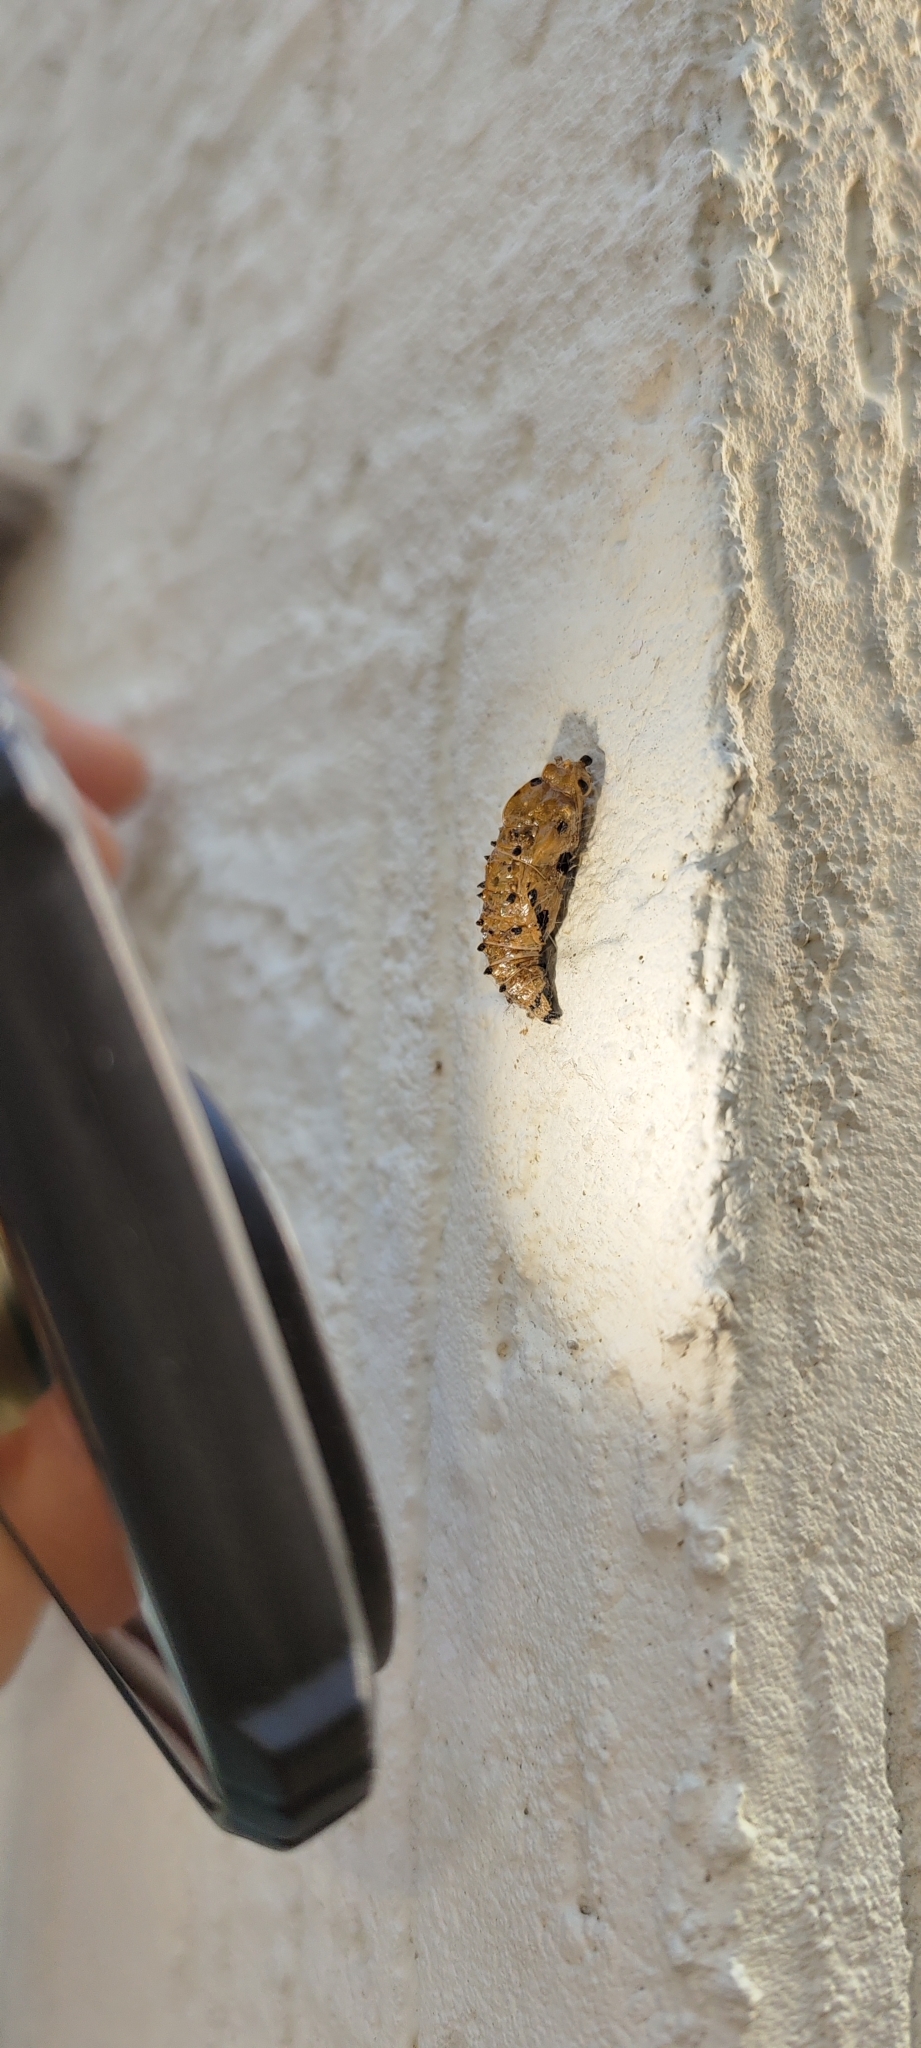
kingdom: Animalia
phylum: Arthropoda
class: Insecta
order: Lepidoptera
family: Pieridae
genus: Delias
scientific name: Delias eucharis
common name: Common jezebel
